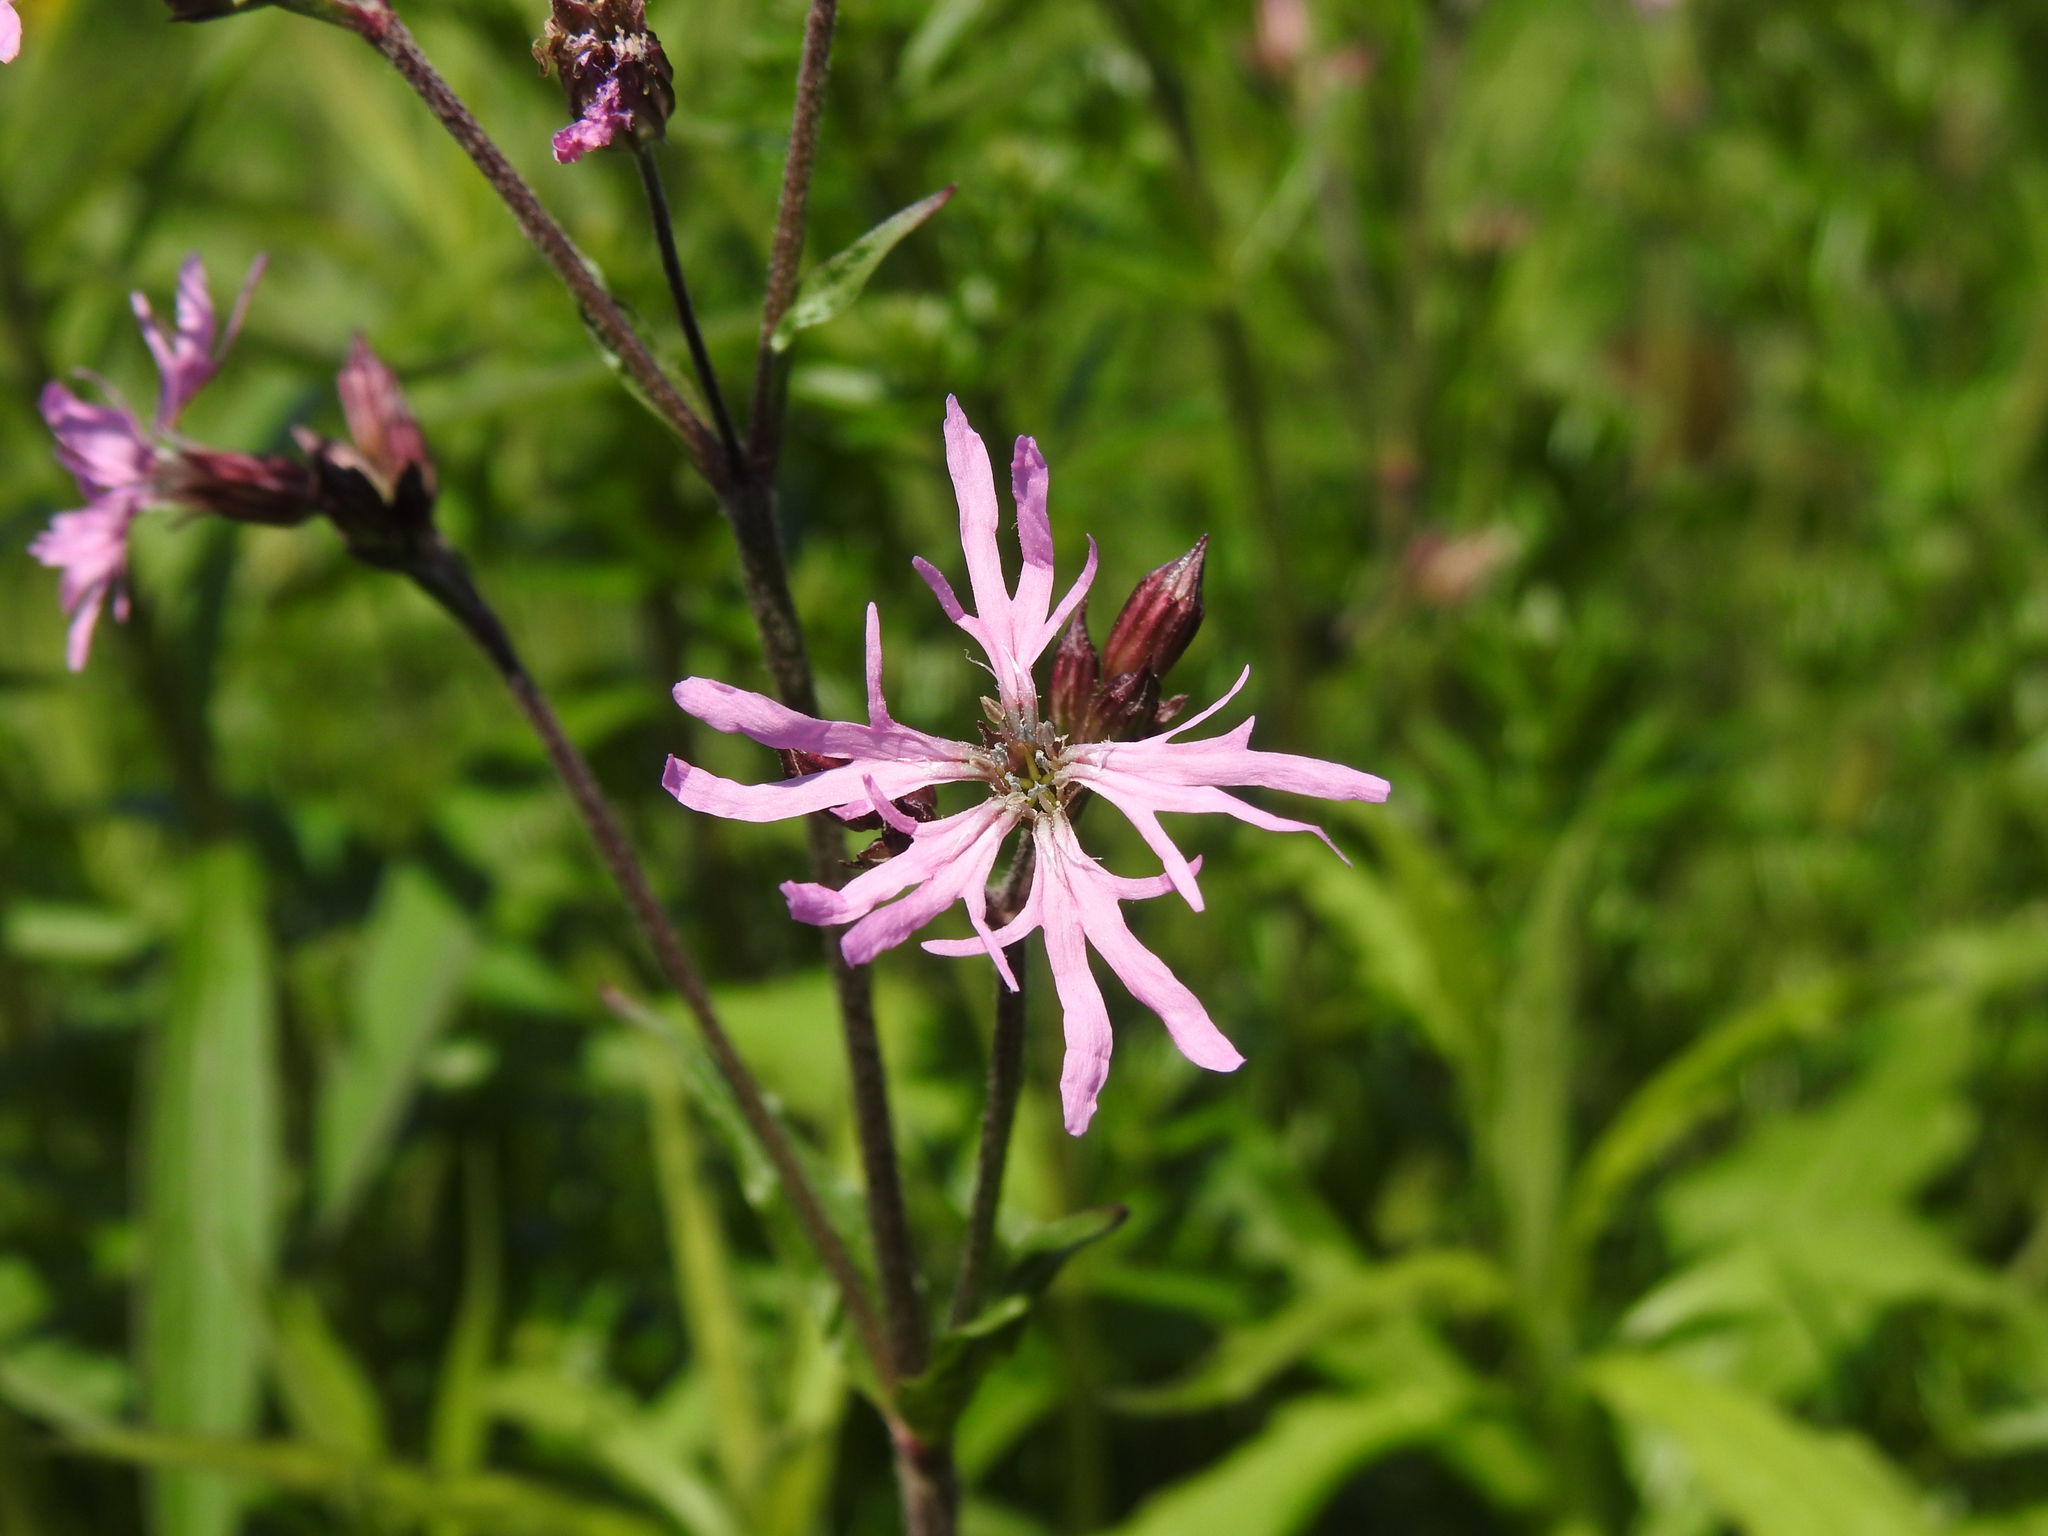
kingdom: Plantae
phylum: Tracheophyta
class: Magnoliopsida
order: Caryophyllales
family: Caryophyllaceae
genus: Silene
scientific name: Silene flos-cuculi
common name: Ragged-robin
